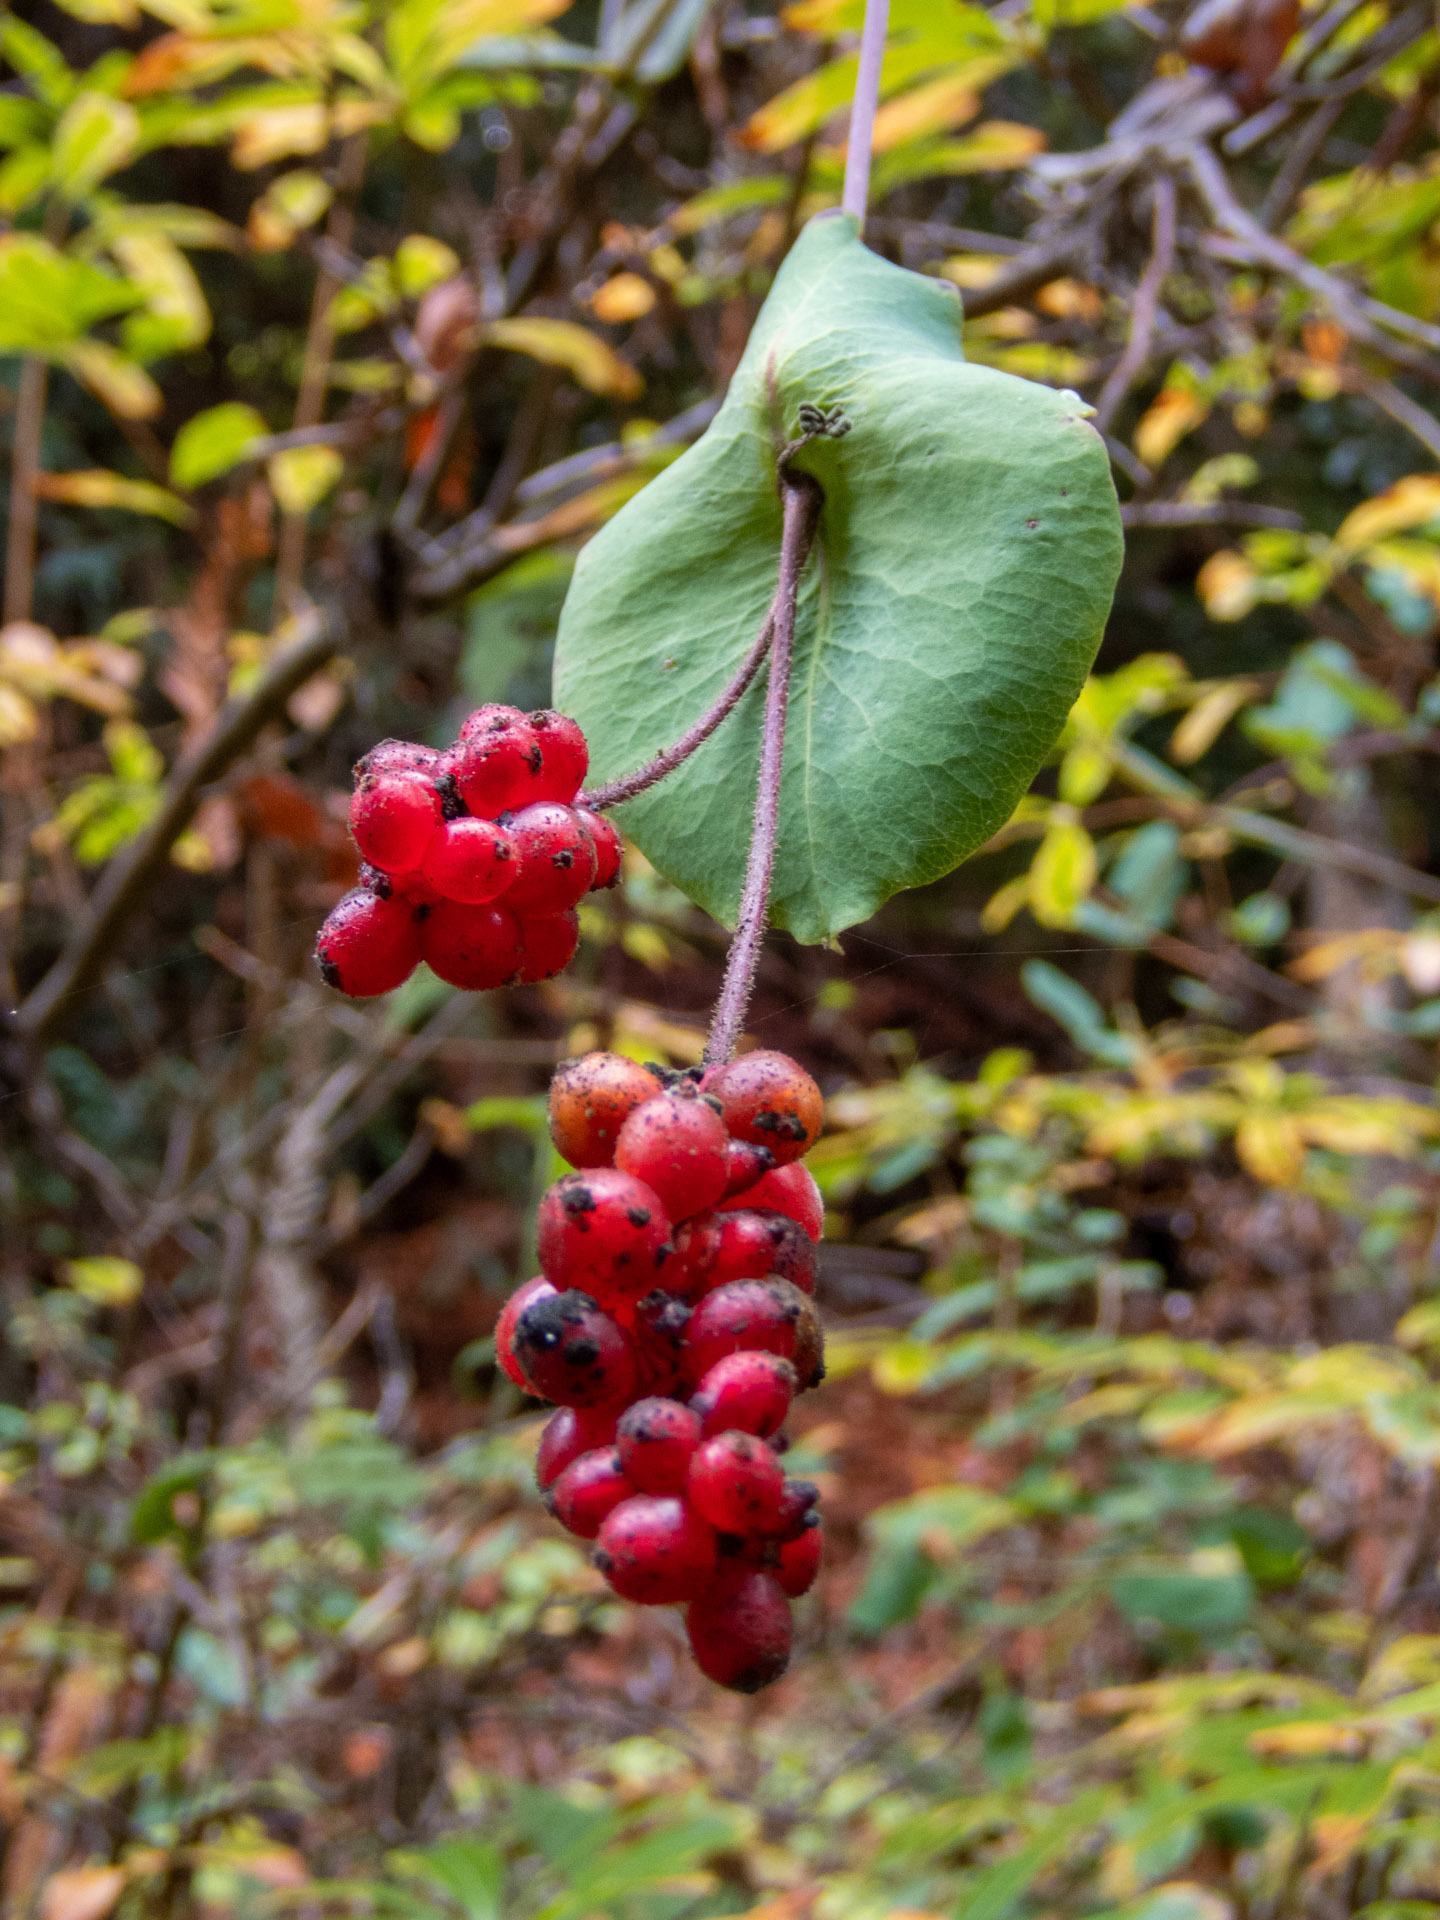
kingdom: Plantae
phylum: Tracheophyta
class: Magnoliopsida
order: Dipsacales
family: Caprifoliaceae
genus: Lonicera
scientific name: Lonicera hispidula
